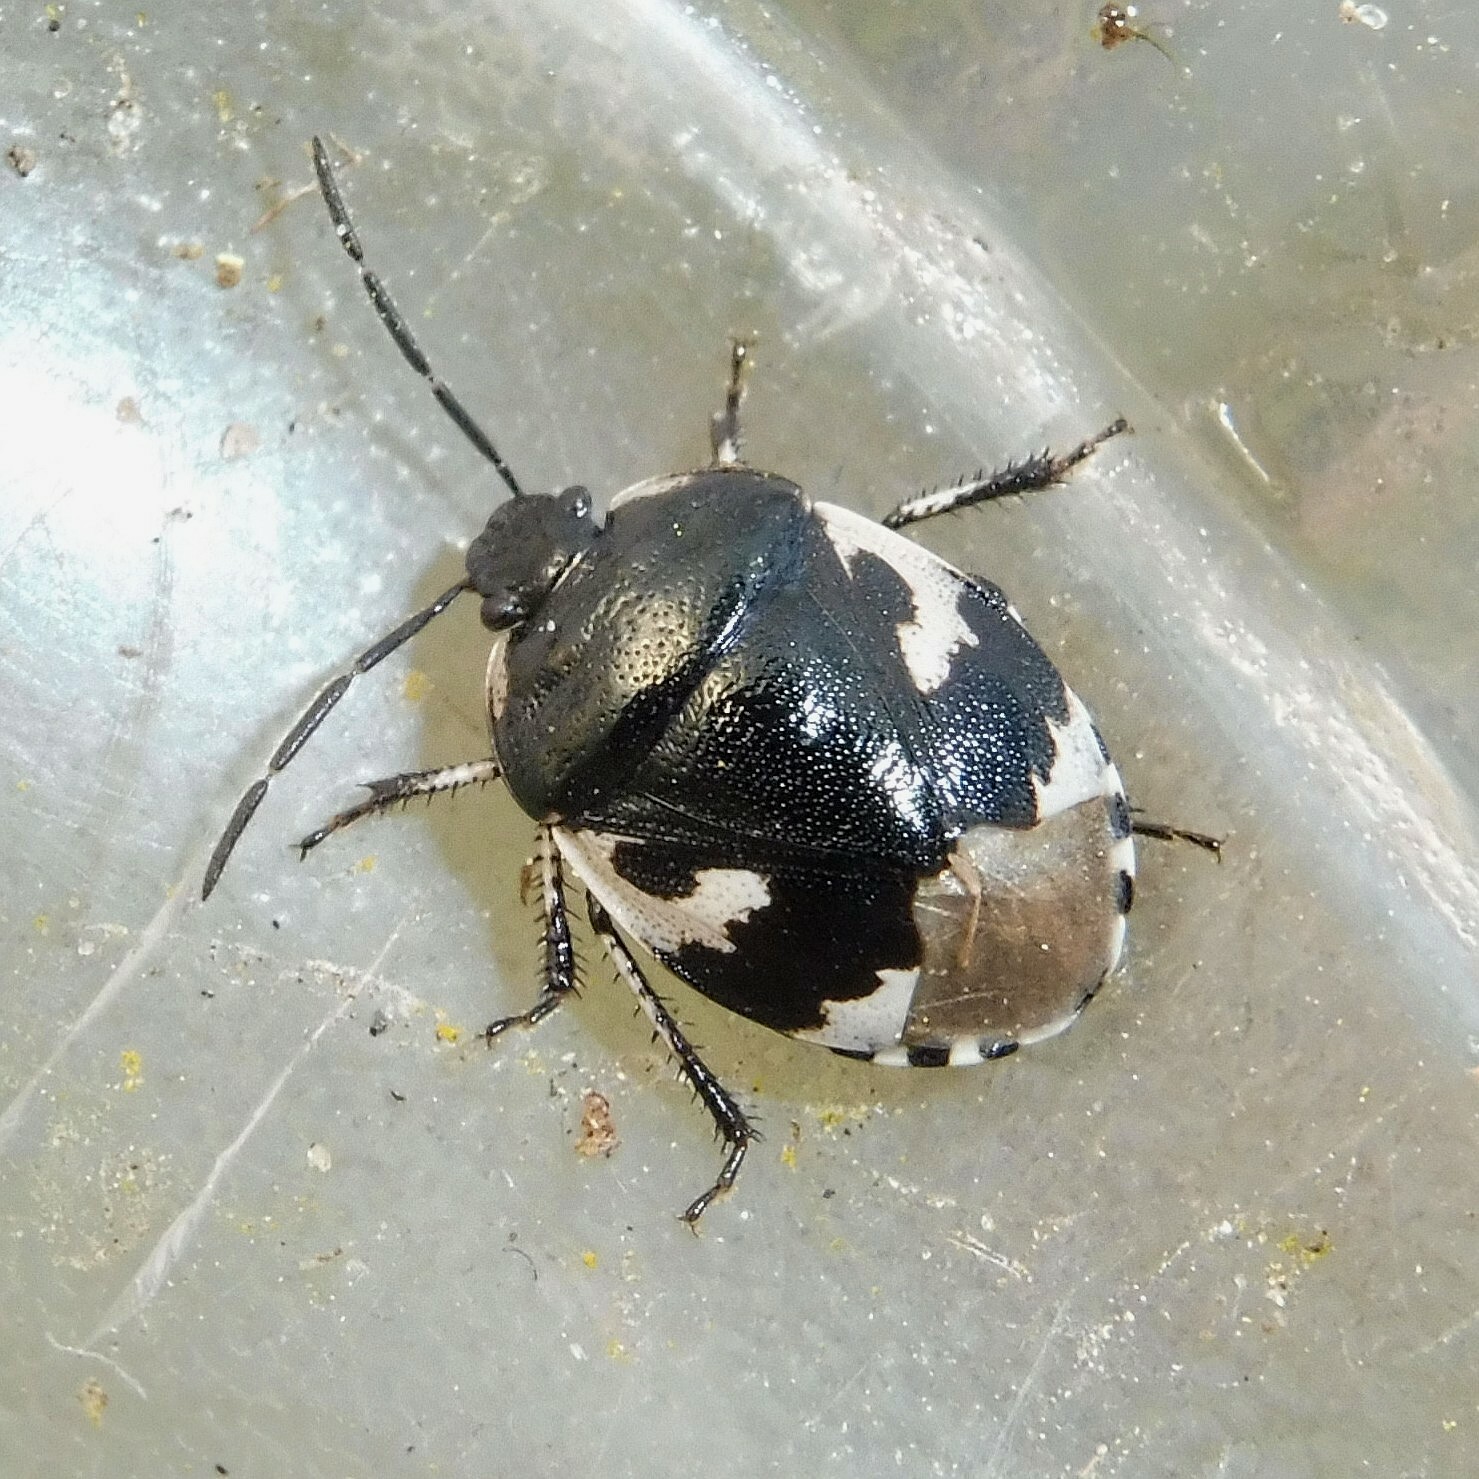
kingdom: Animalia
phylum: Arthropoda
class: Insecta
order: Hemiptera
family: Cydnidae
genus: Tritomegas
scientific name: Tritomegas bicolor
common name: Pied shieldbug
